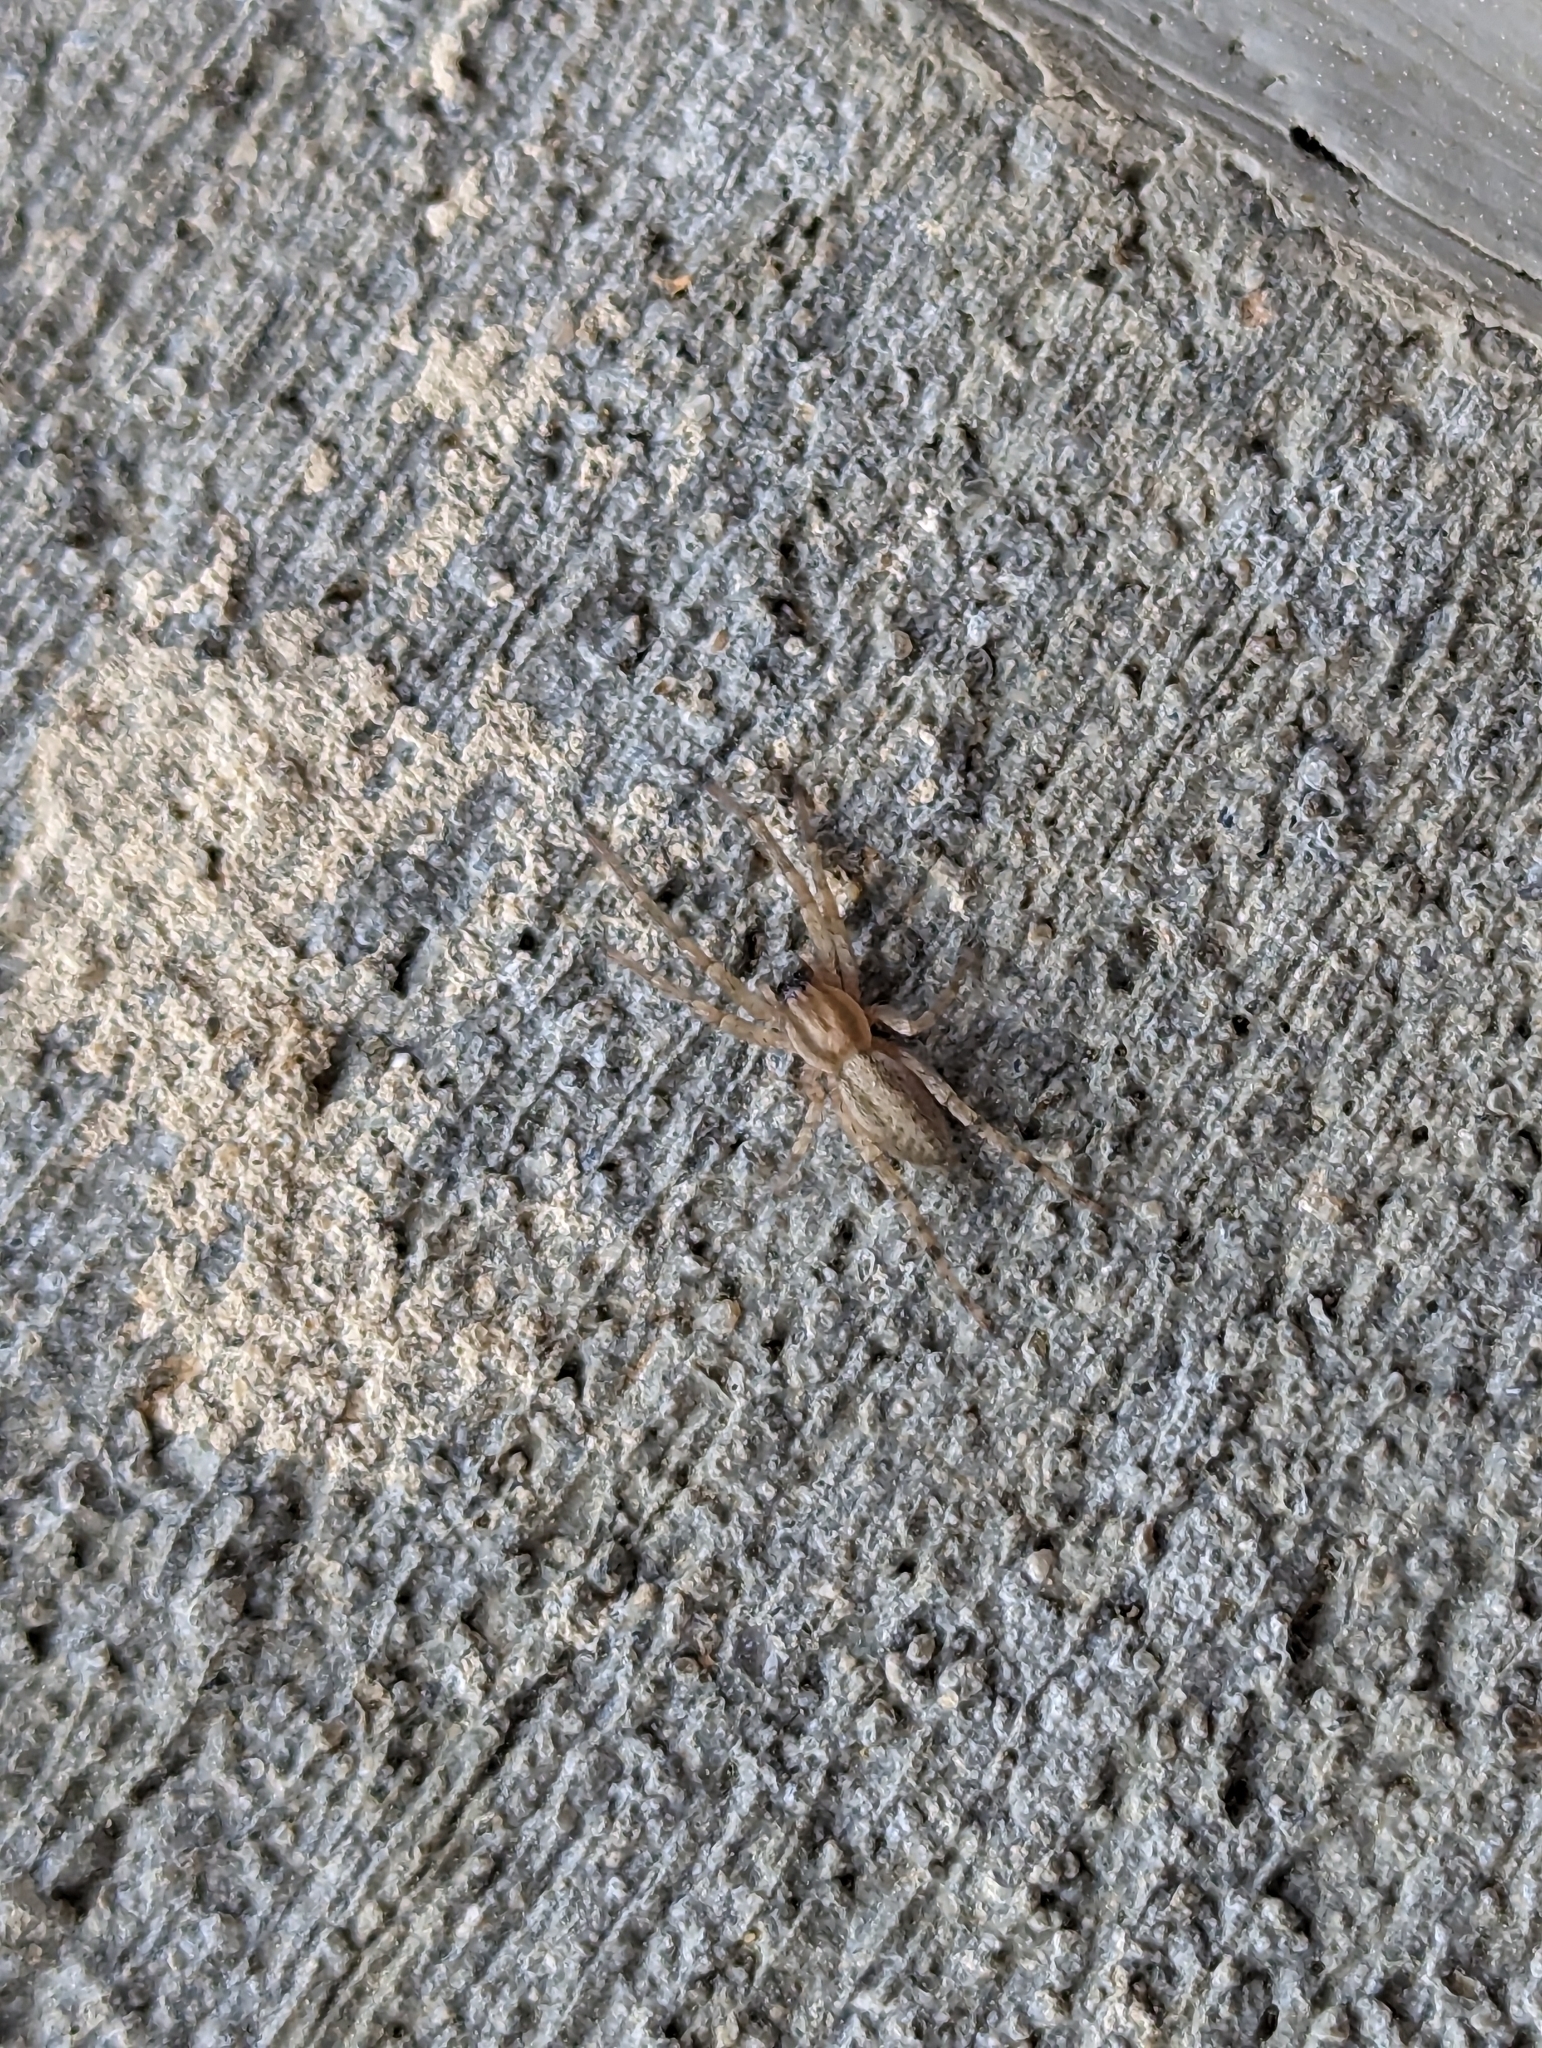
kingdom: Animalia
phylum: Arthropoda
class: Arachnida
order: Araneae
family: Anyphaenidae
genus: Hibana
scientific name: Hibana gracilis
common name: Garden ghost spider
